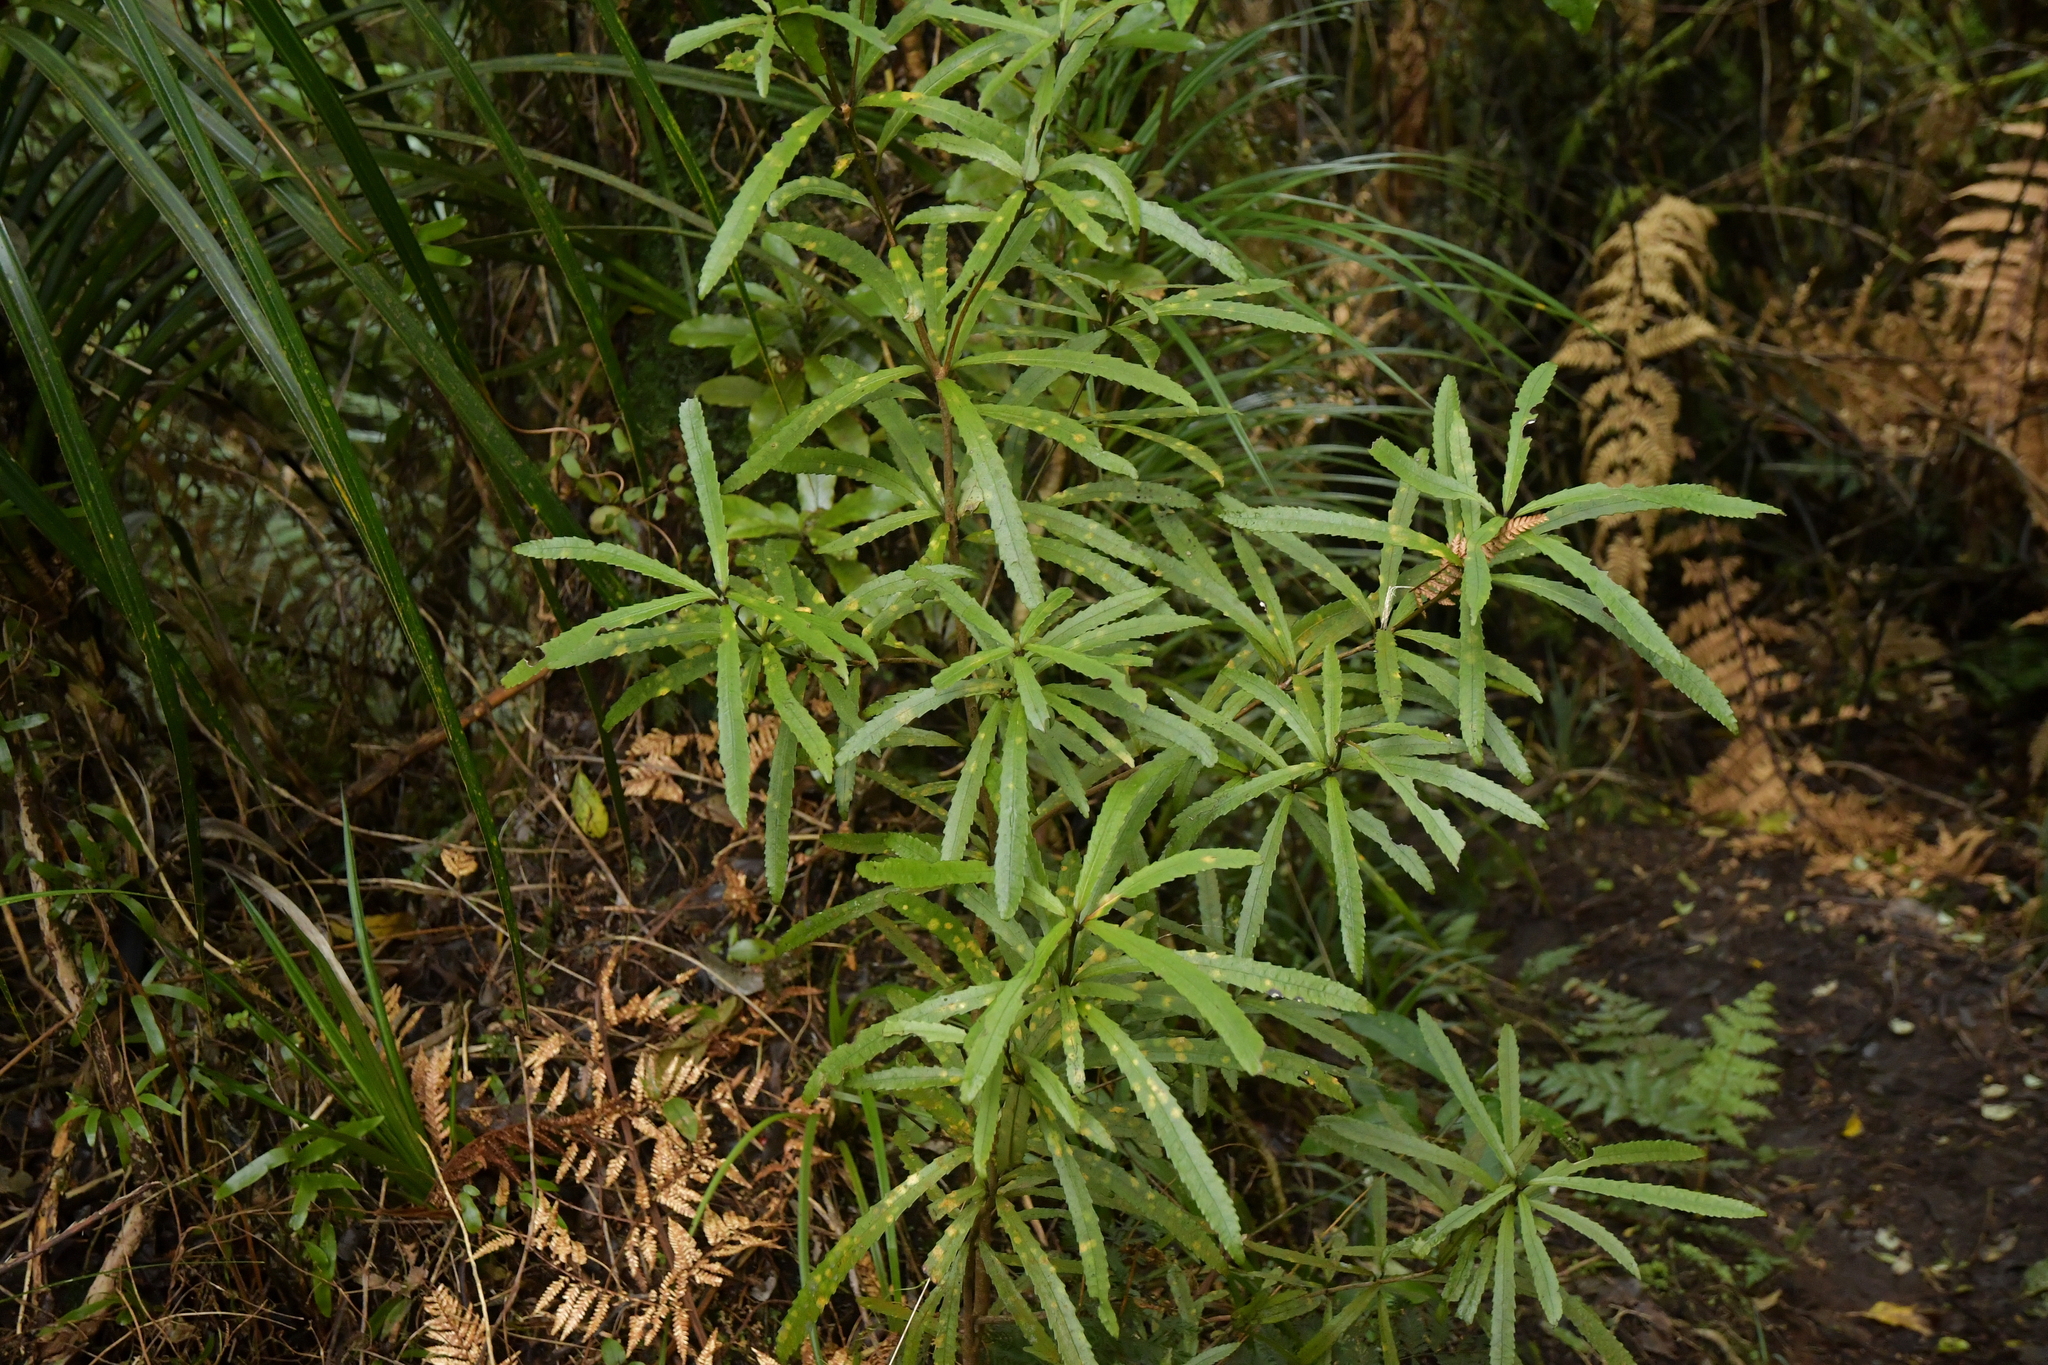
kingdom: Plantae
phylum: Tracheophyta
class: Magnoliopsida
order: Crossosomatales
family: Ixerbaceae
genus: Ixerba
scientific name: Ixerba brexioides
